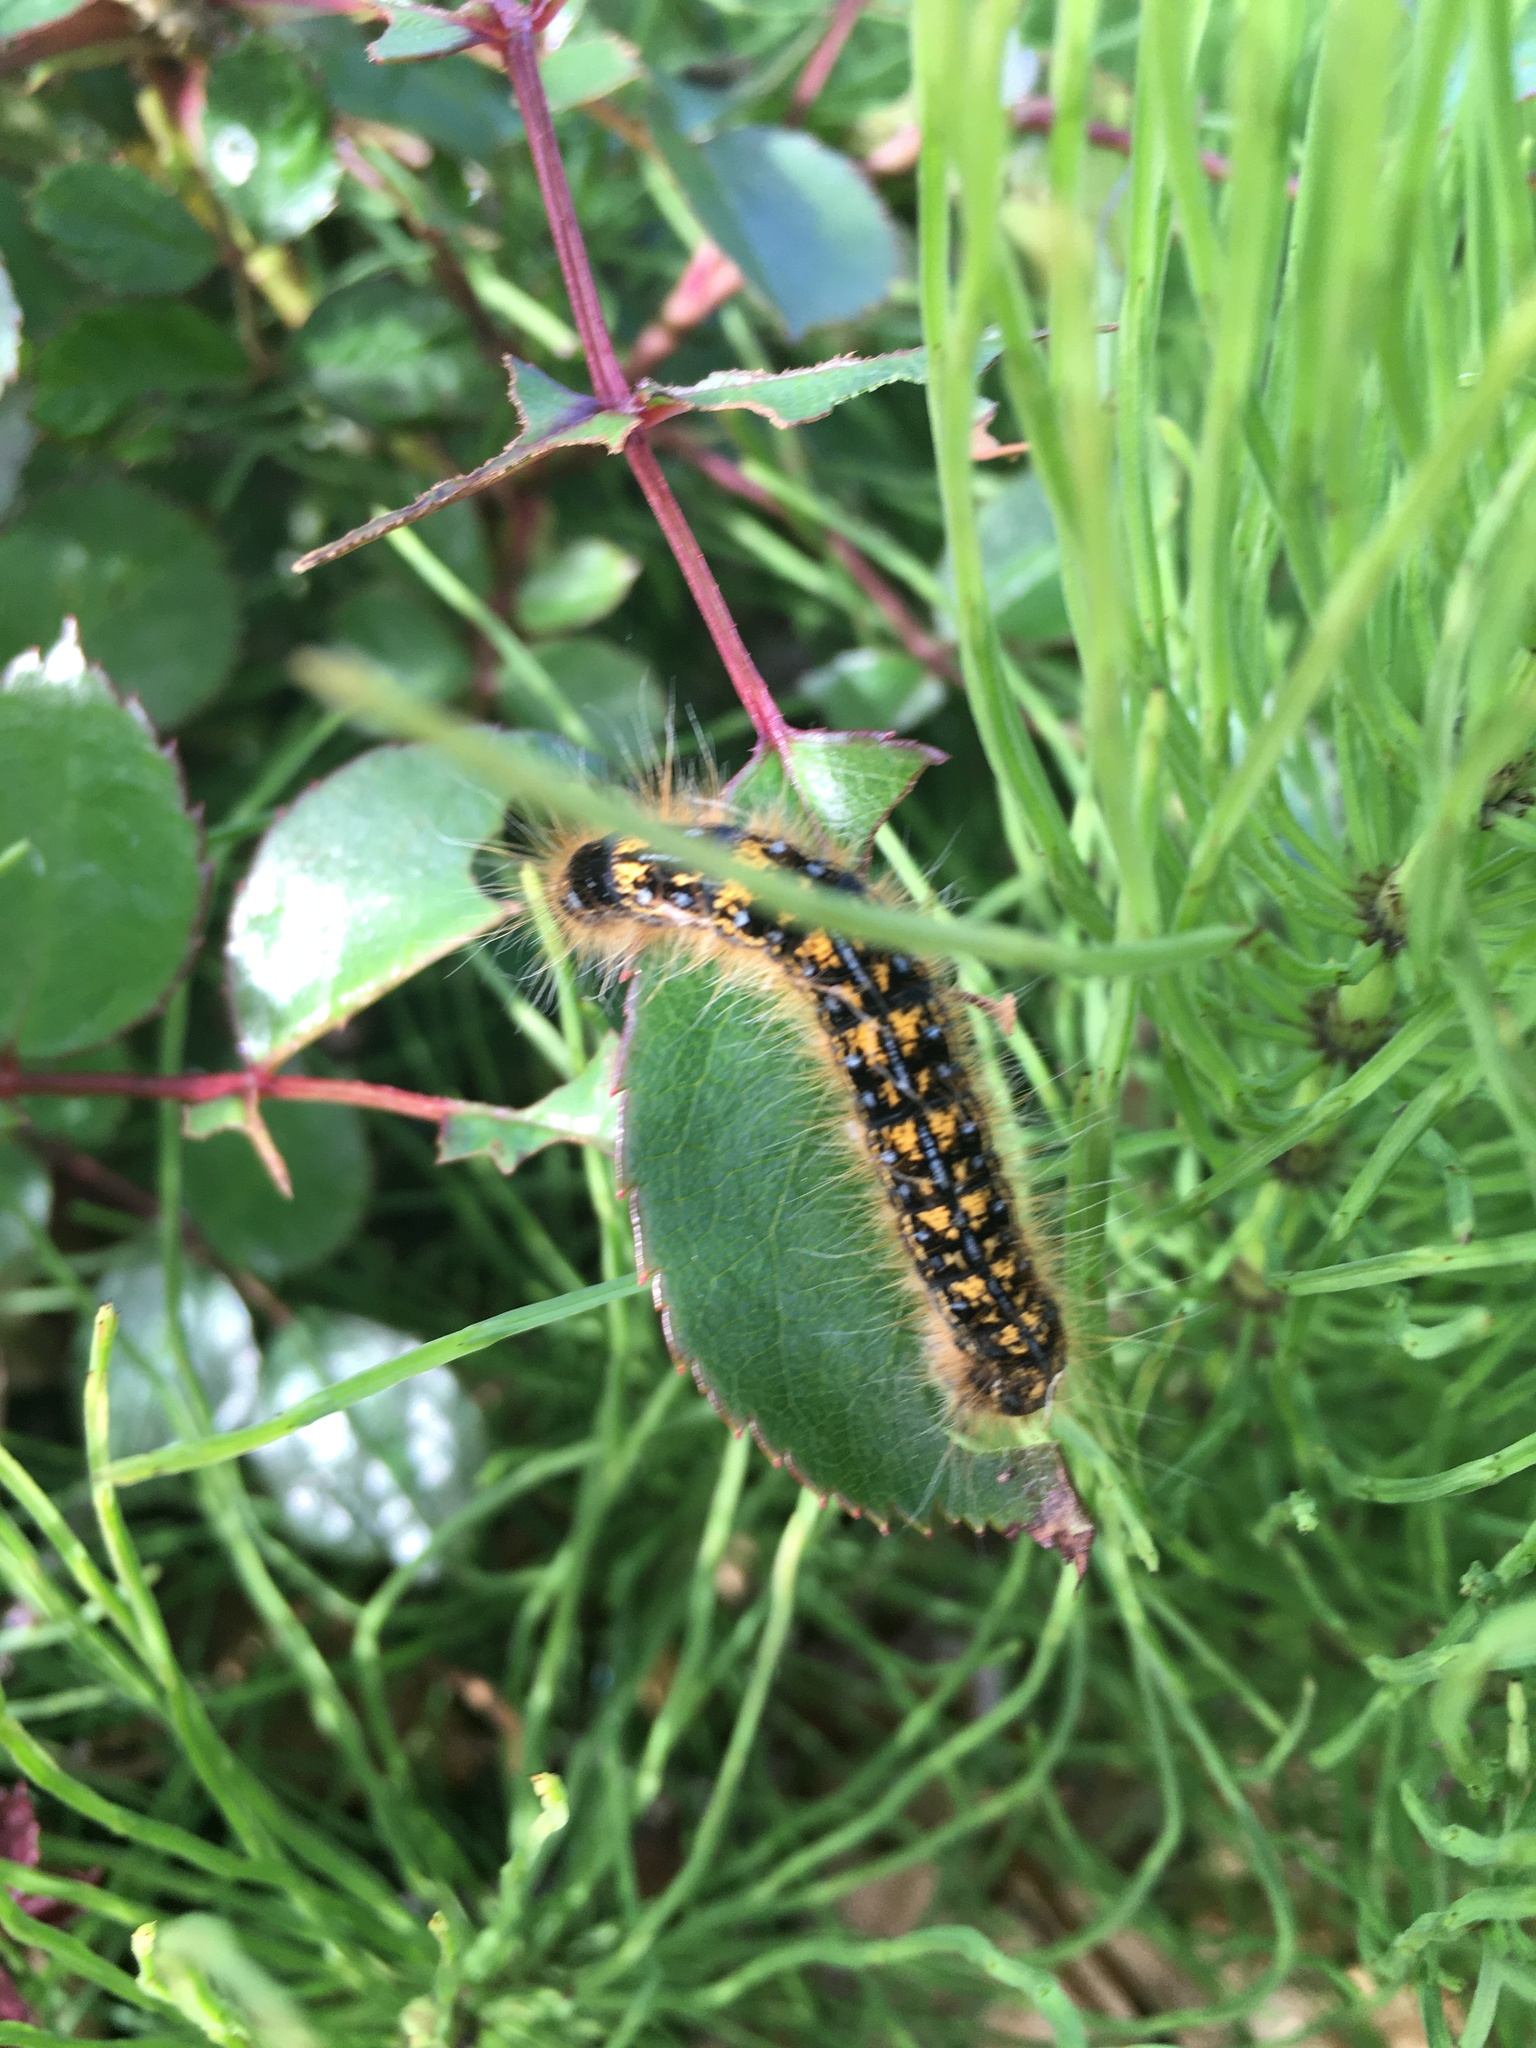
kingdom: Animalia
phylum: Arthropoda
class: Insecta
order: Lepidoptera
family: Lasiocampidae
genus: Malacosoma
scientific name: Malacosoma californica
